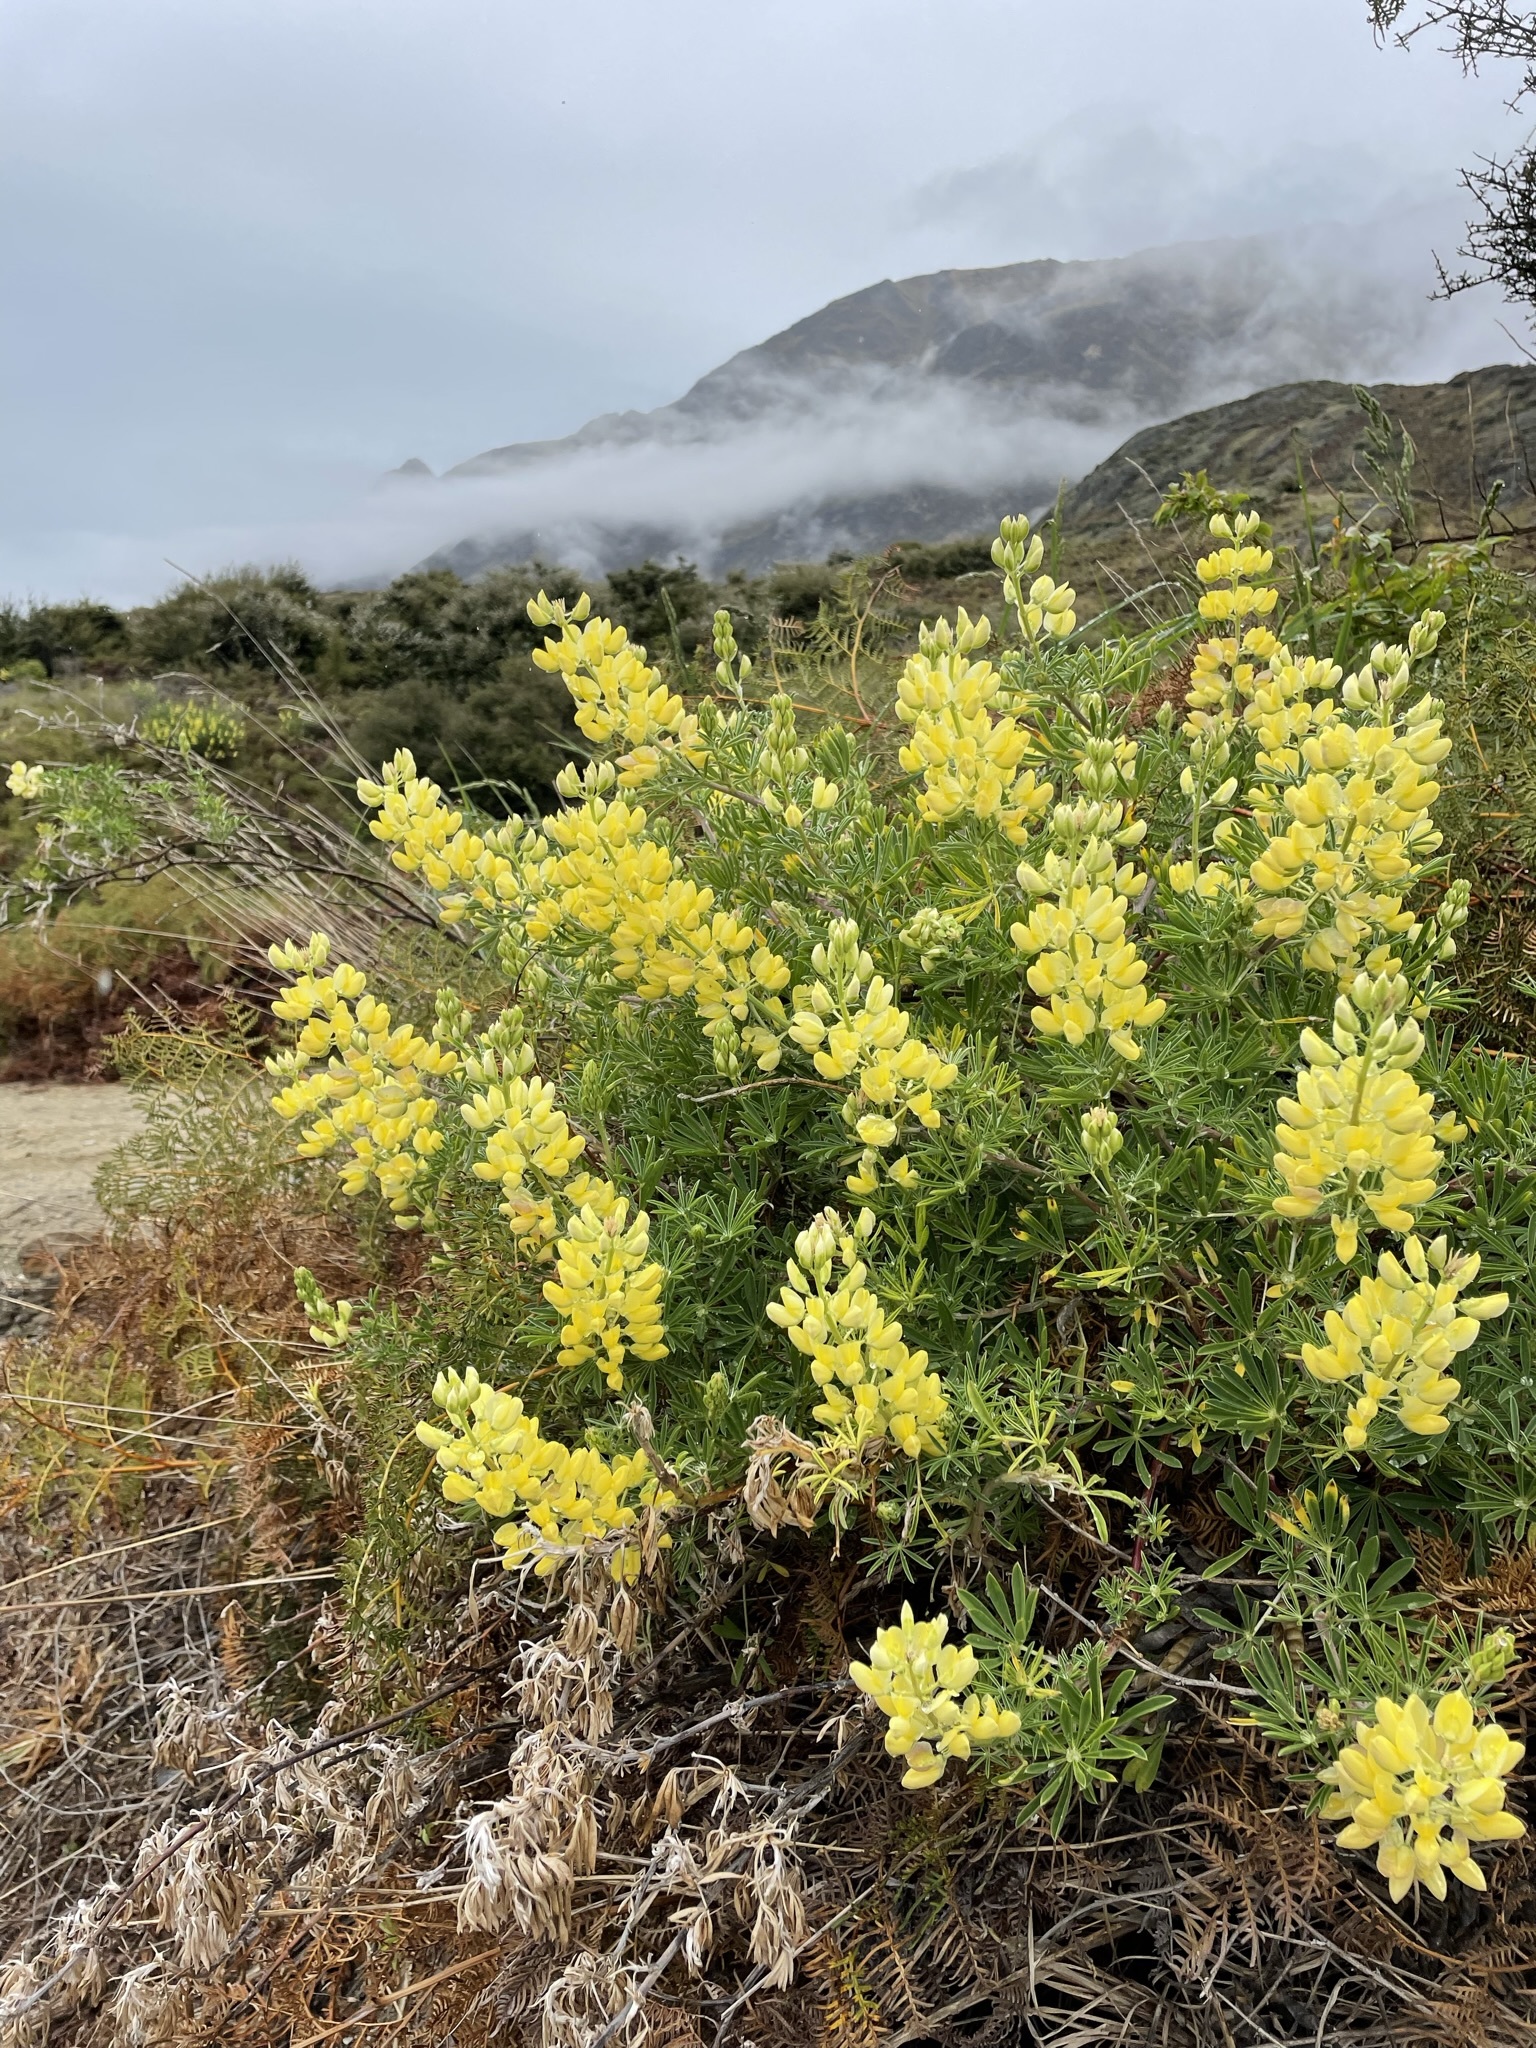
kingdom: Plantae
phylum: Tracheophyta
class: Magnoliopsida
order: Fabales
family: Fabaceae
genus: Lupinus
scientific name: Lupinus arboreus
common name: Yellow bush lupine
